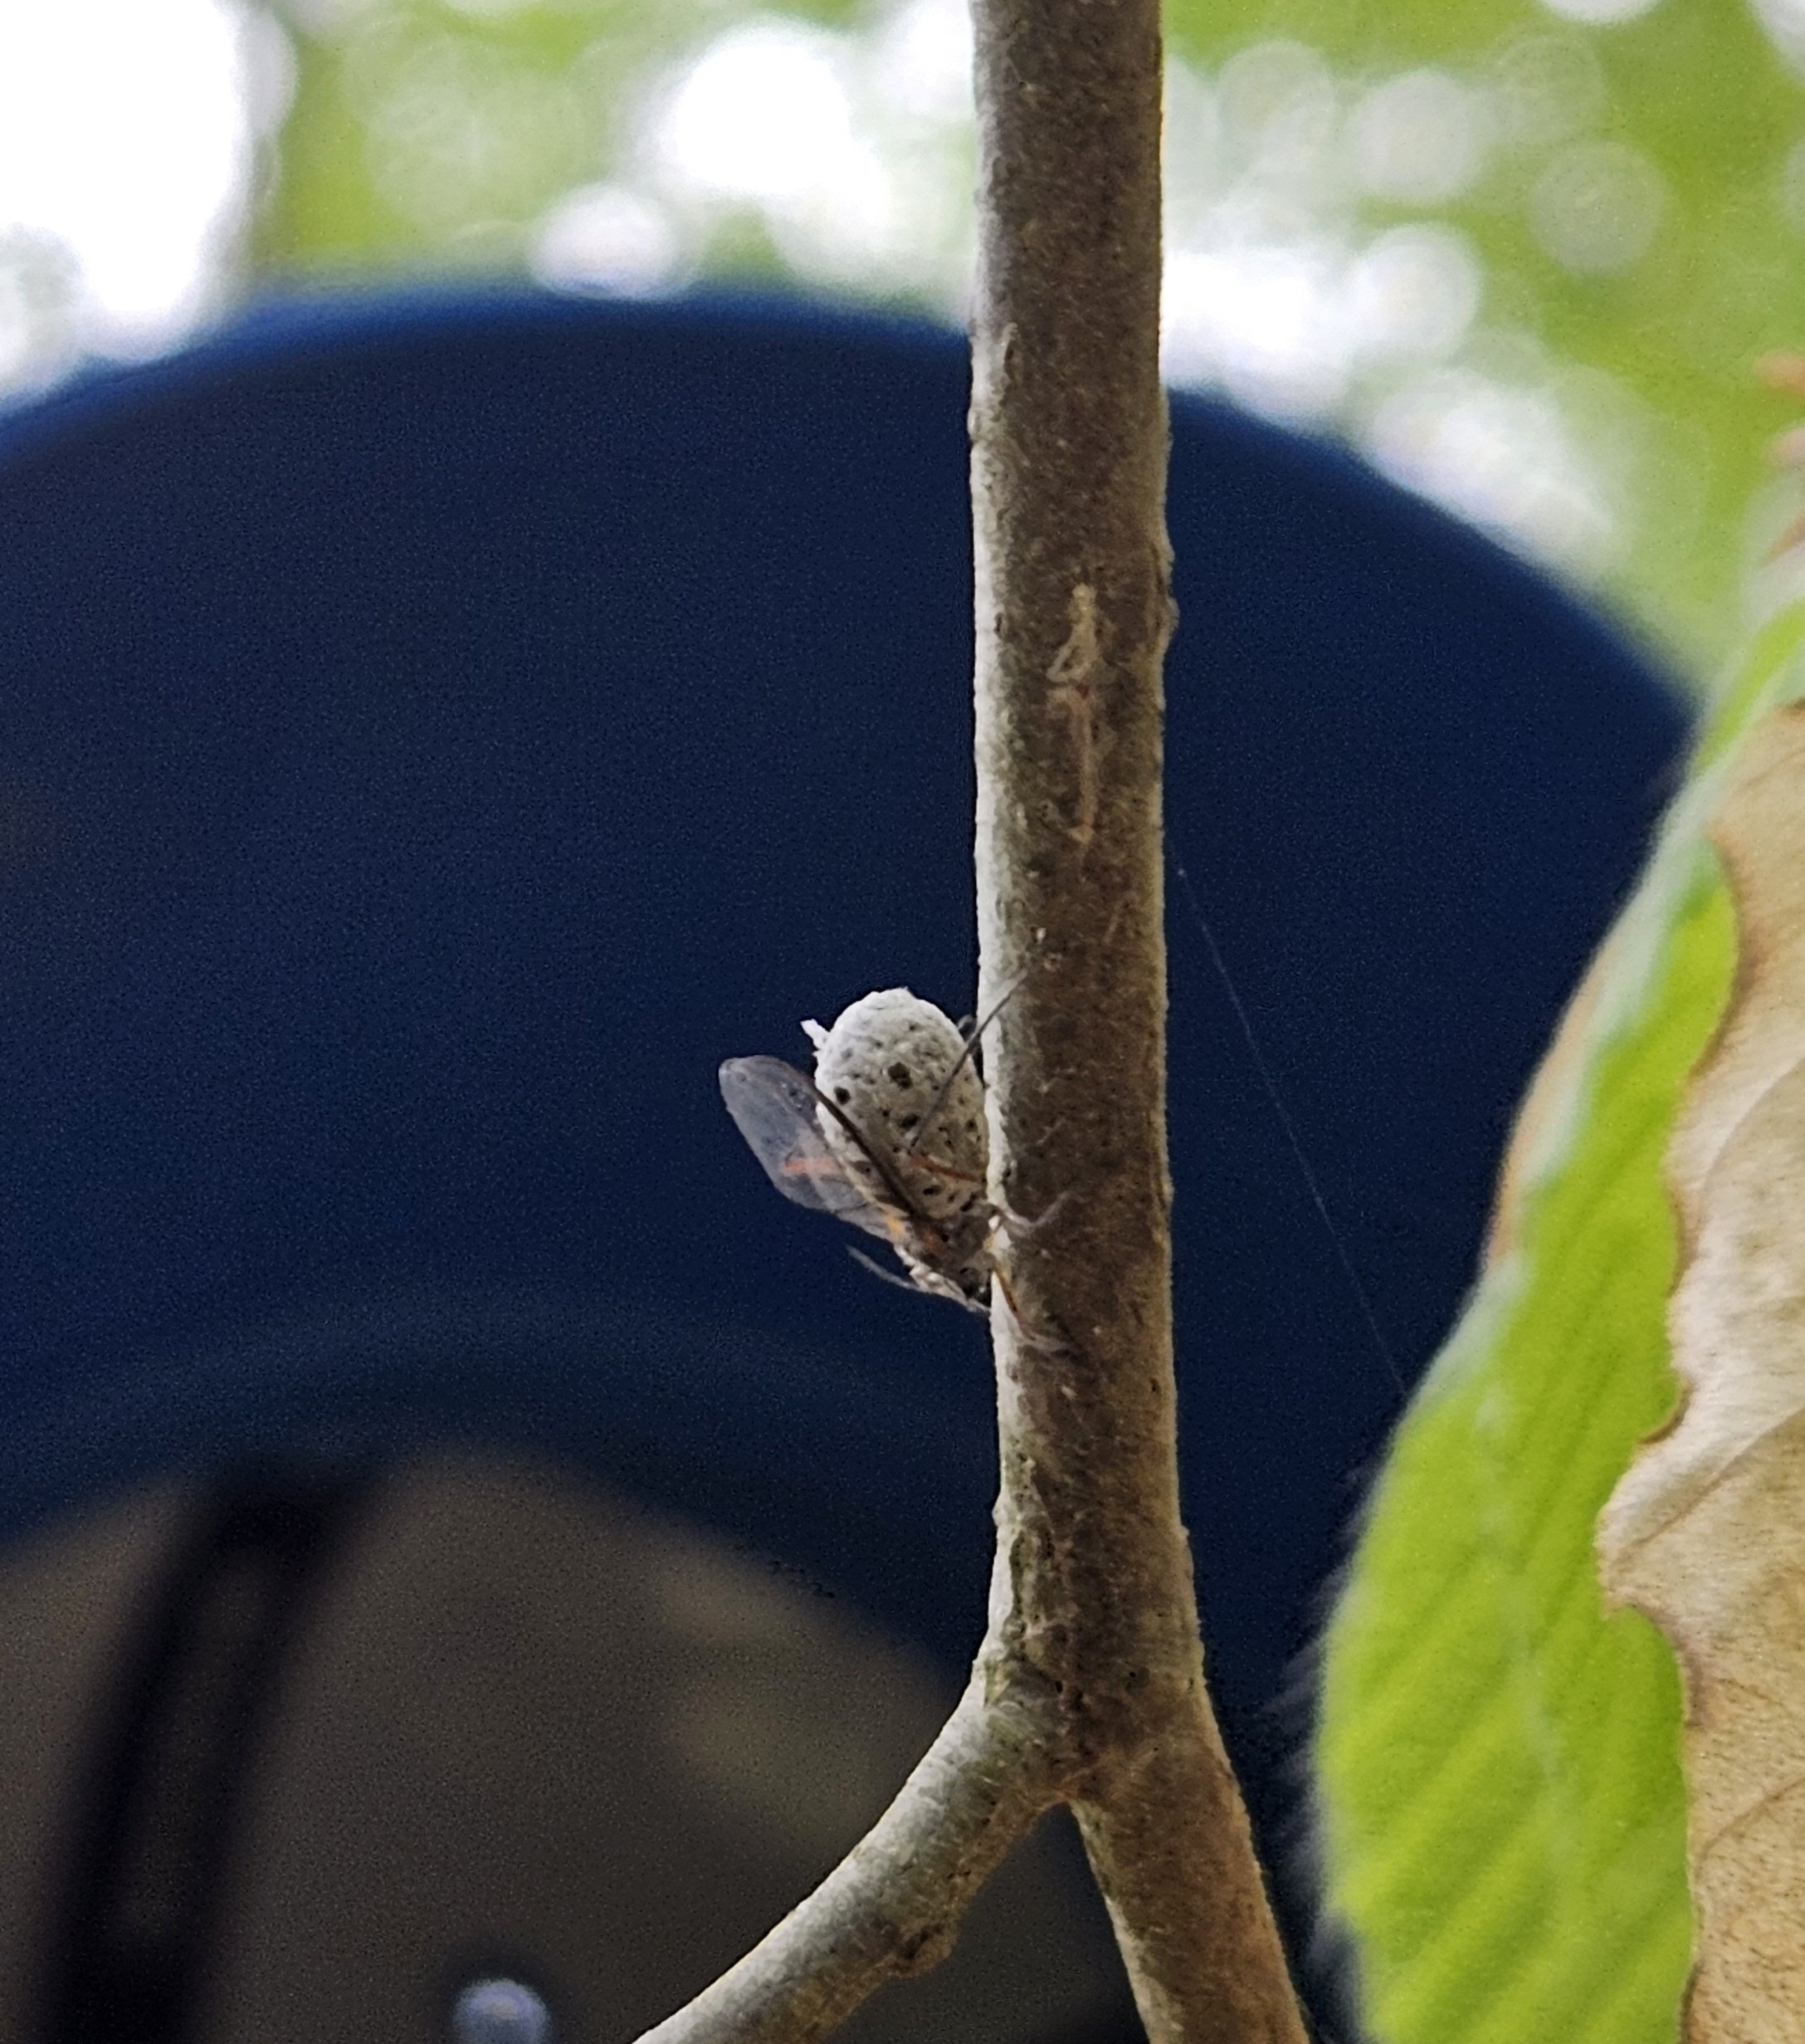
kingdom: Animalia
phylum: Arthropoda
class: Insecta
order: Hemiptera
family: Aphididae
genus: Longistigma
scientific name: Longistigma caryae
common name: Giant bark aphid
